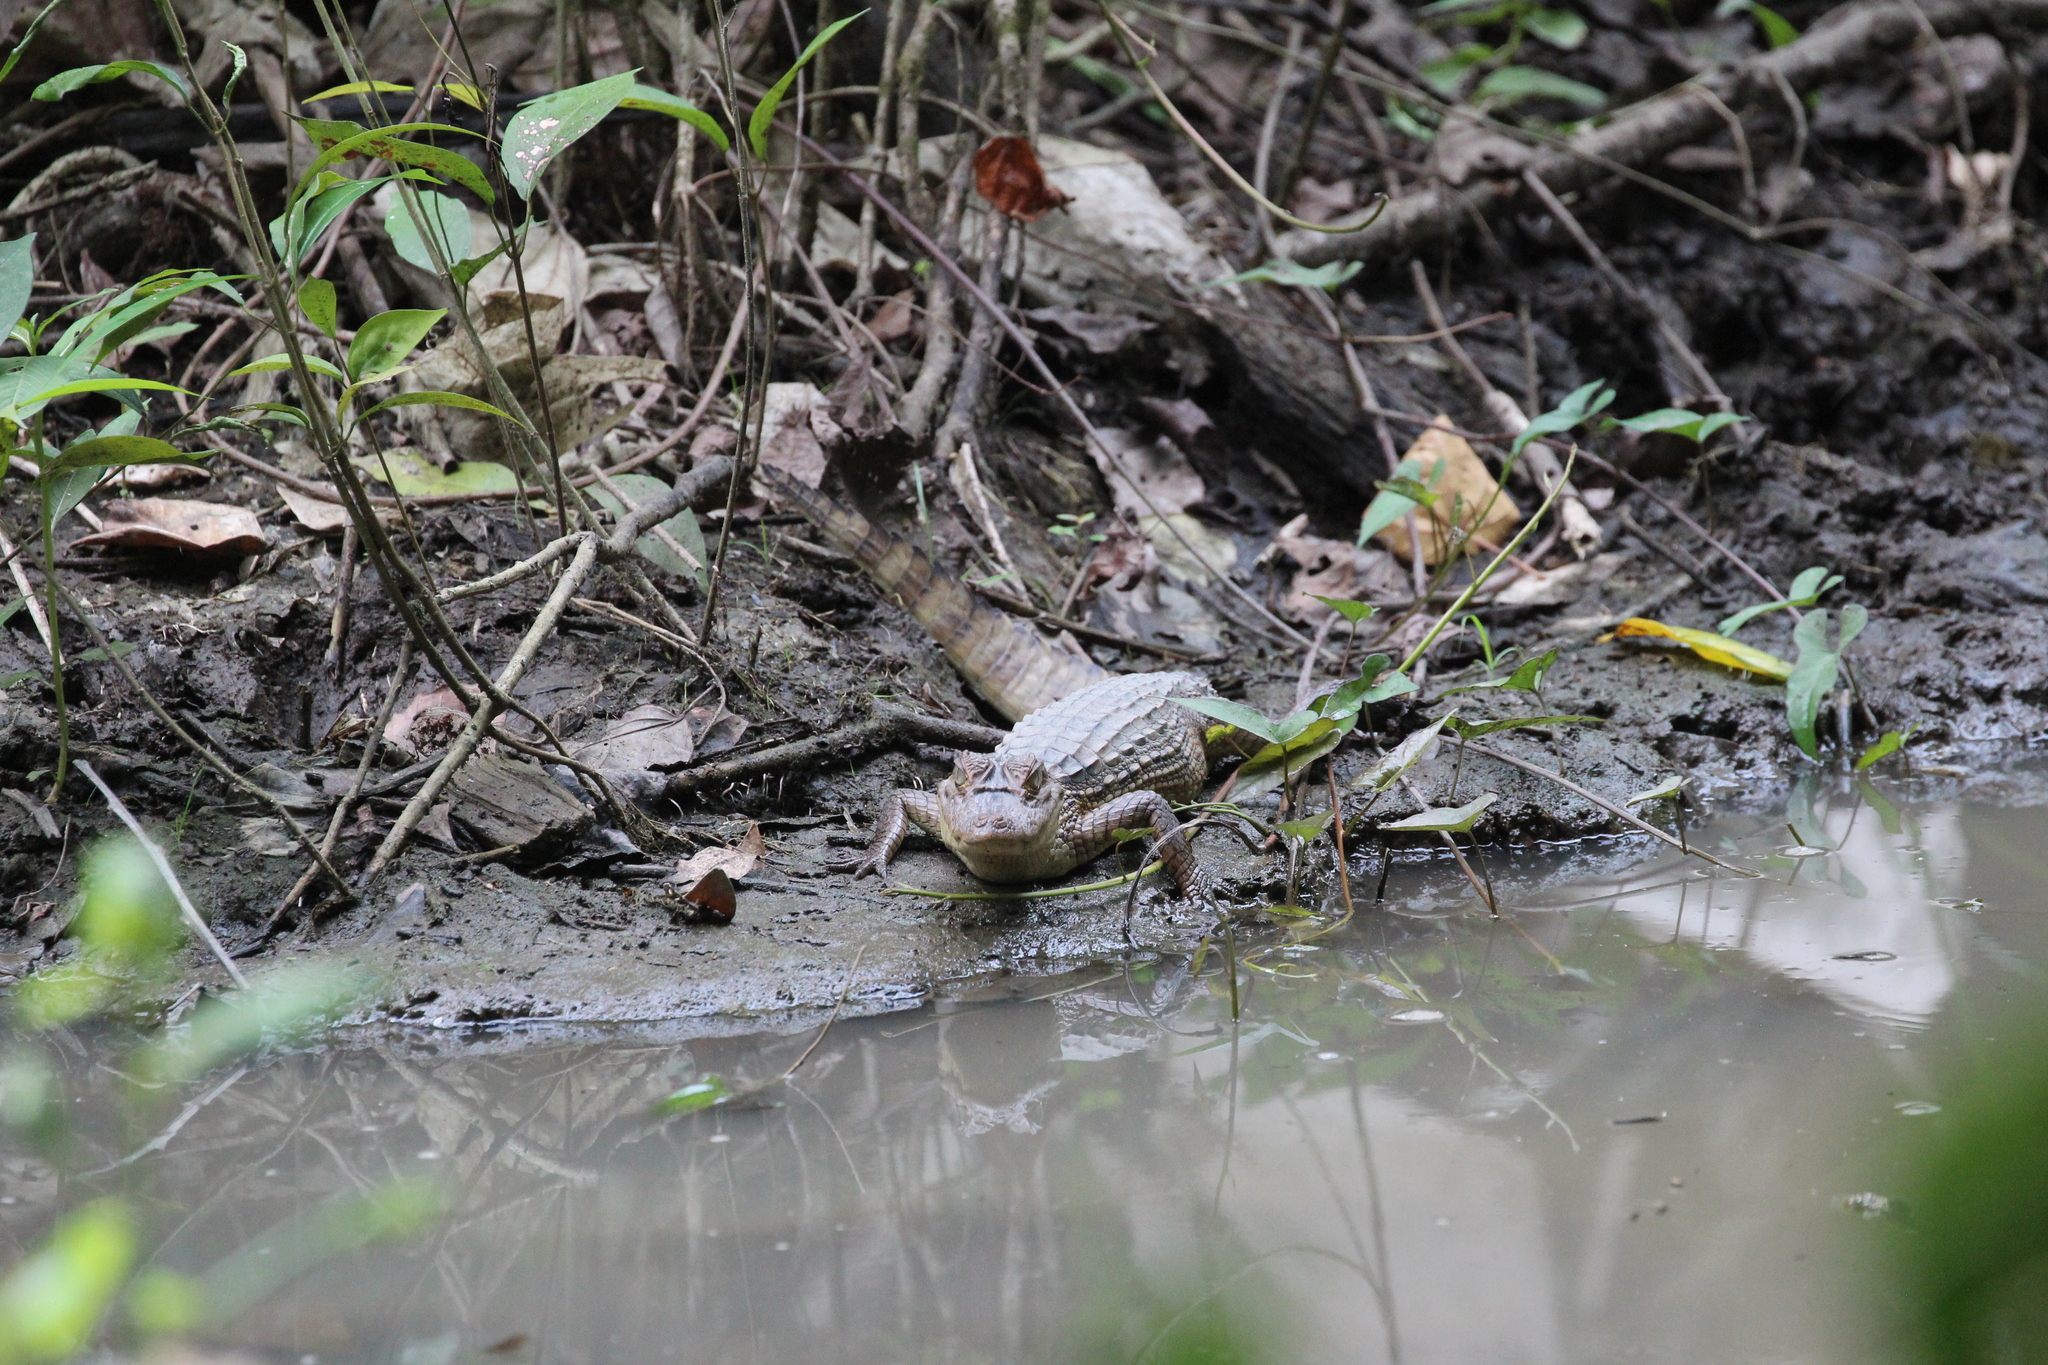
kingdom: Animalia
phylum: Chordata
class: Crocodylia
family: Alligatoridae
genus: Caiman
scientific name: Caiman crocodilus
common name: Common caiman
